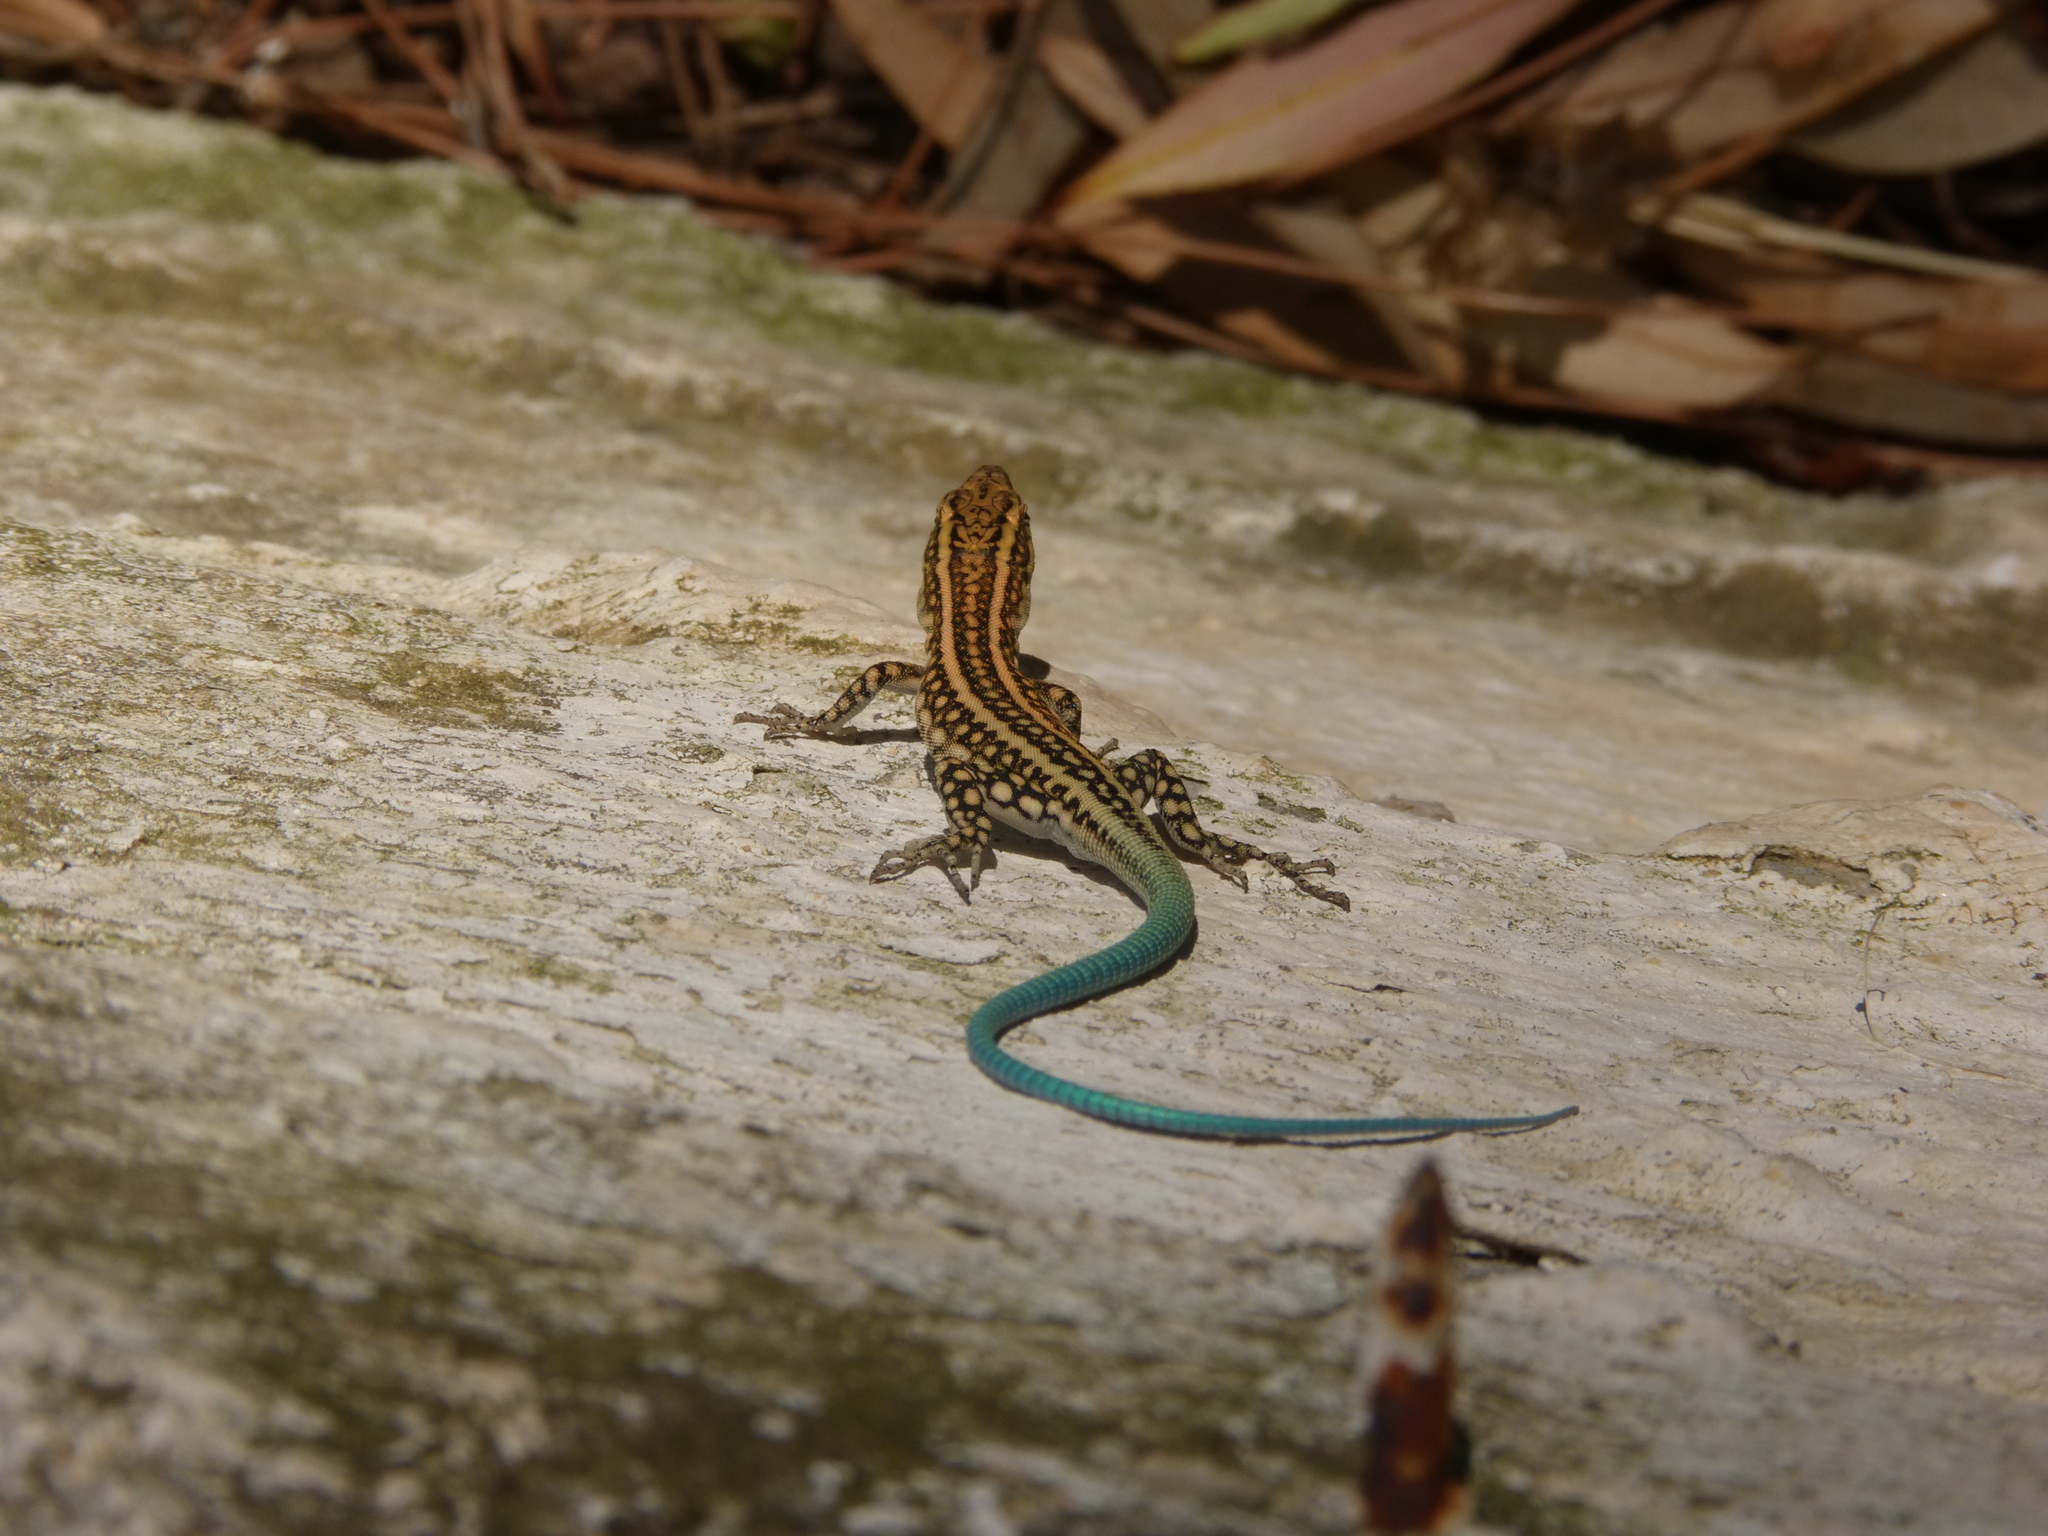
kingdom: Animalia
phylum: Chordata
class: Squamata
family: Lacertidae
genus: Anatololacerta
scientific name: Anatololacerta pelasgiana
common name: Pelasgian rock lizard
